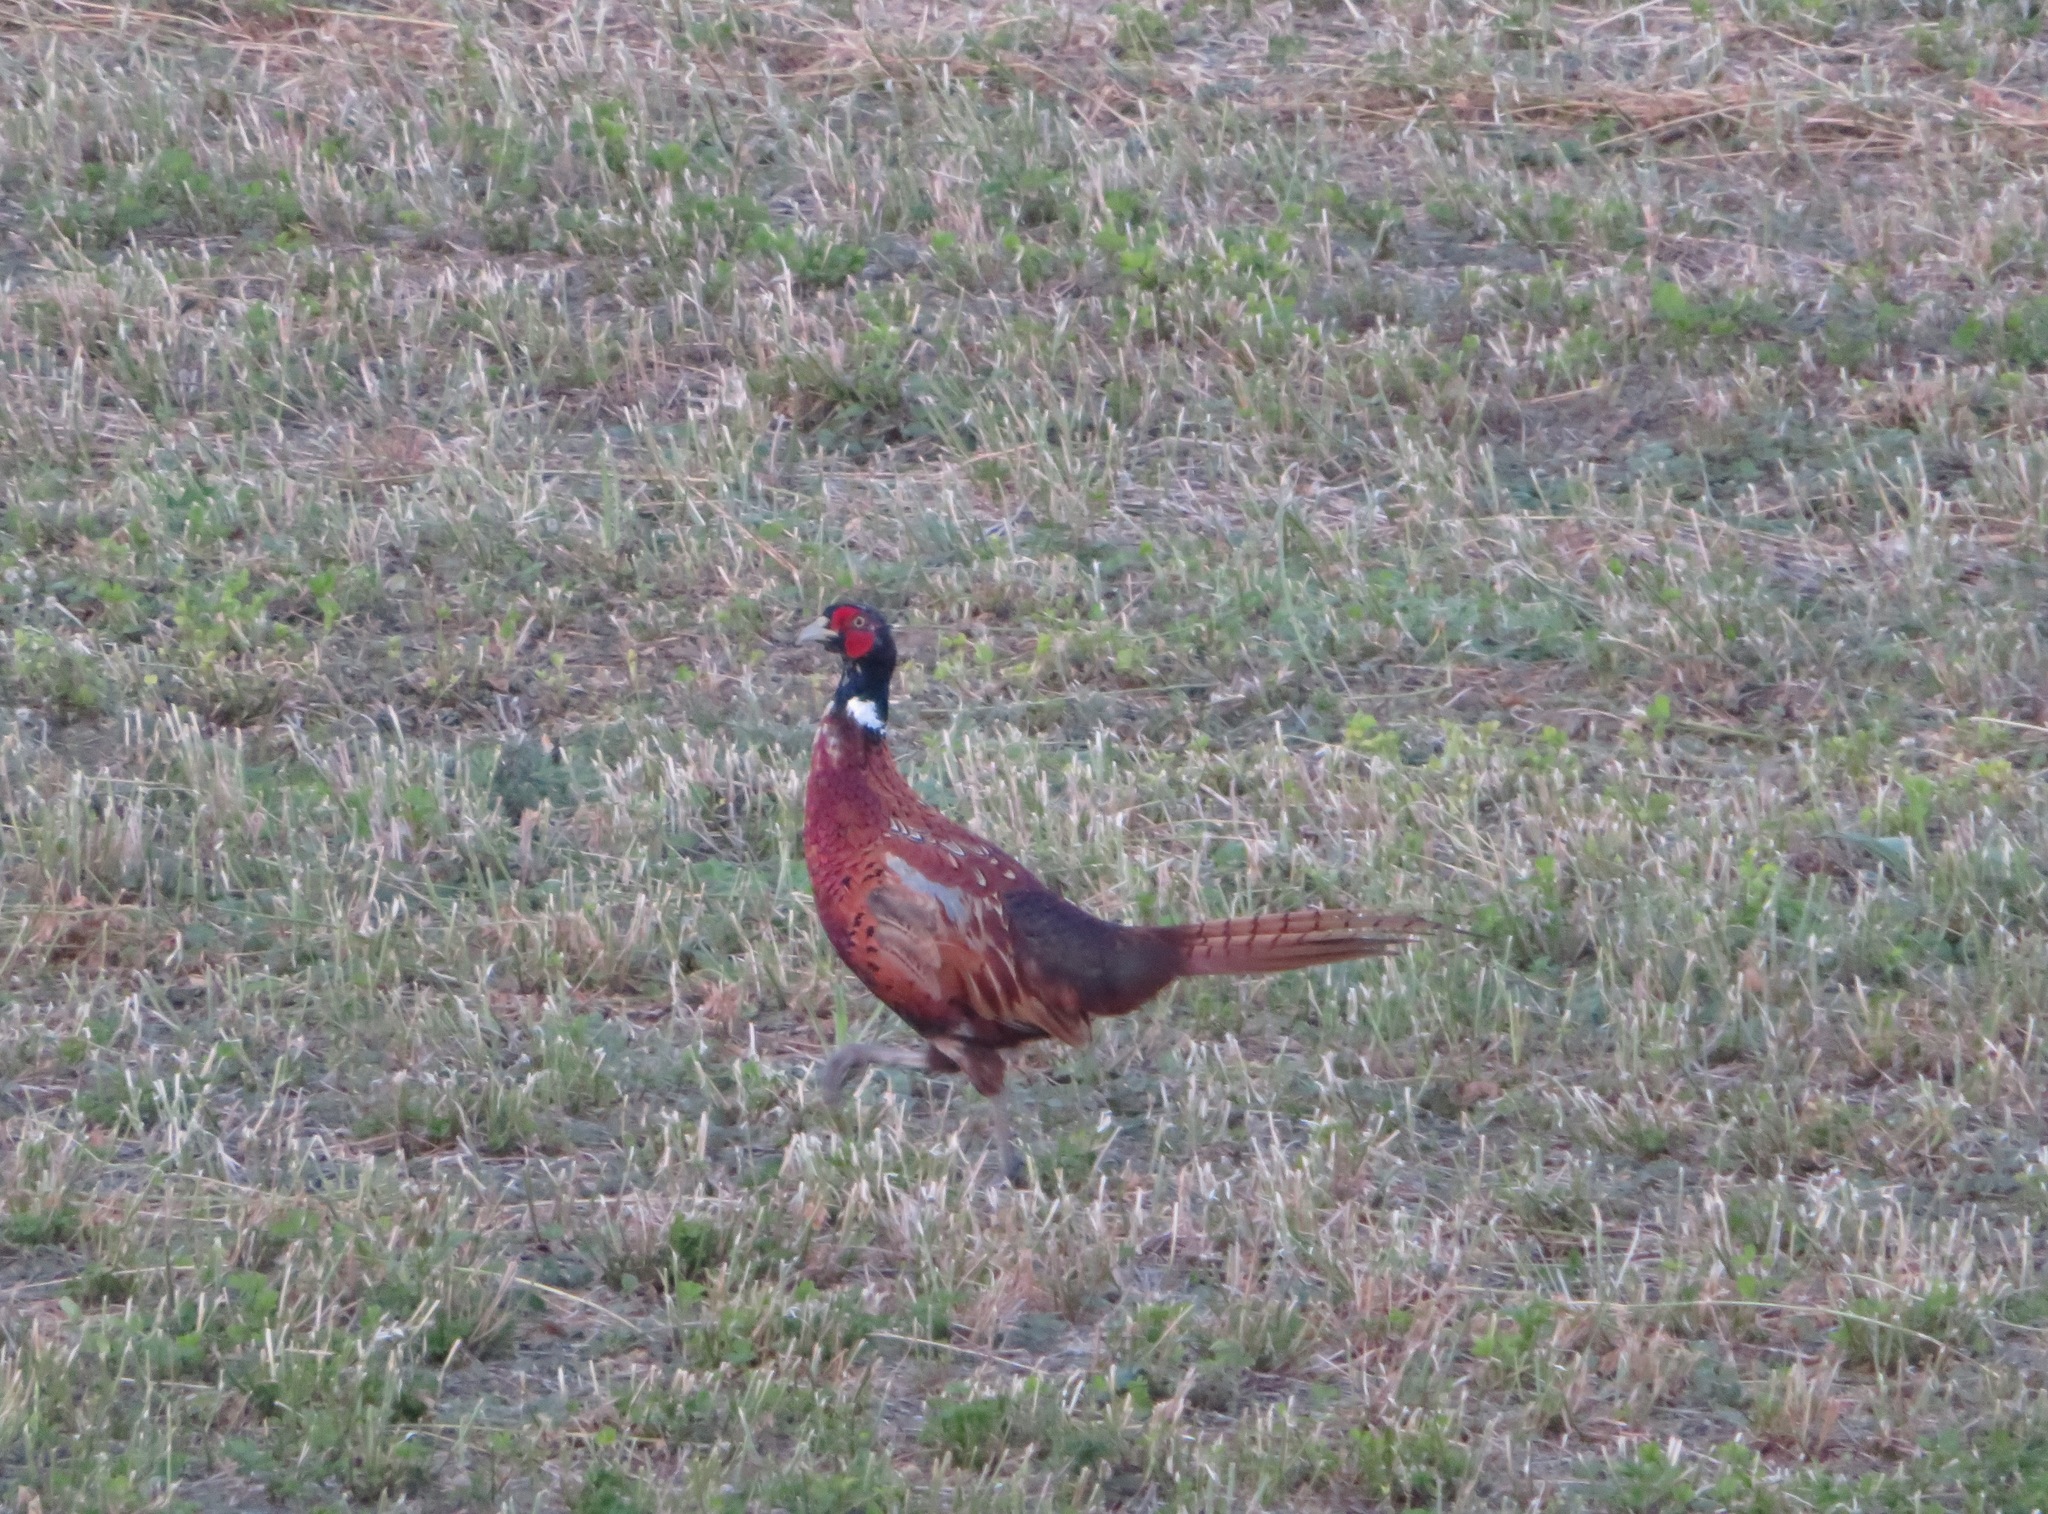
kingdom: Animalia
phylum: Chordata
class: Aves
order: Galliformes
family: Phasianidae
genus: Phasianus
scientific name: Phasianus colchicus
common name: Common pheasant
